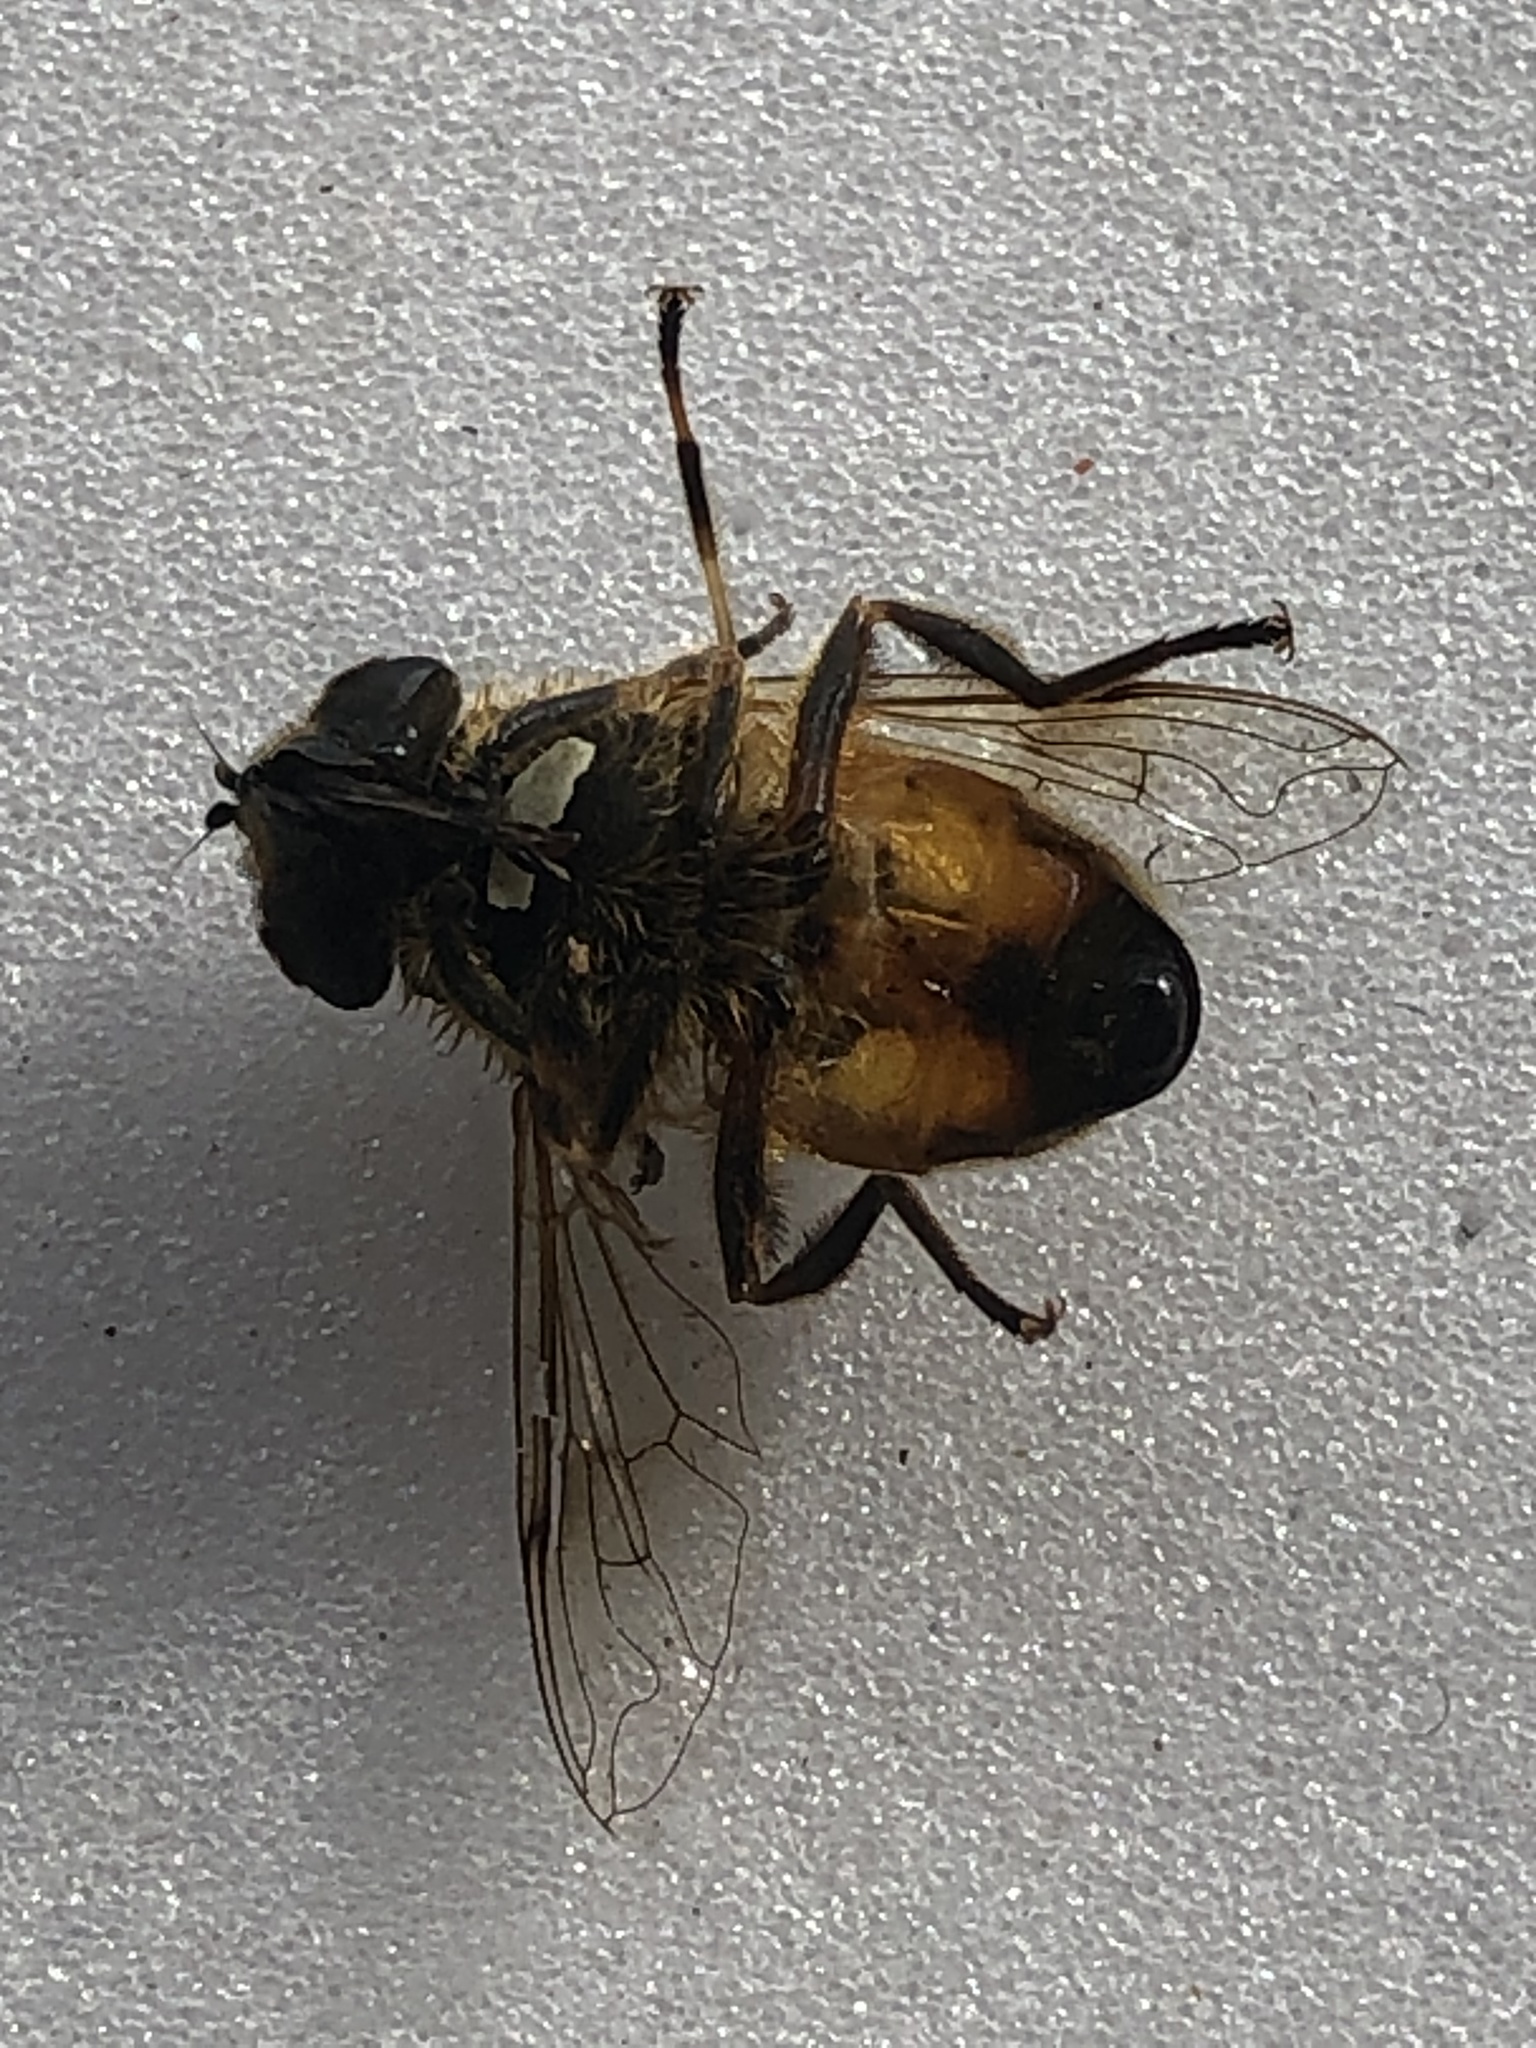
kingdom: Animalia
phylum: Arthropoda
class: Insecta
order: Diptera
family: Syrphidae
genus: Eristalis
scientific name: Eristalis tenax
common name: Drone fly
